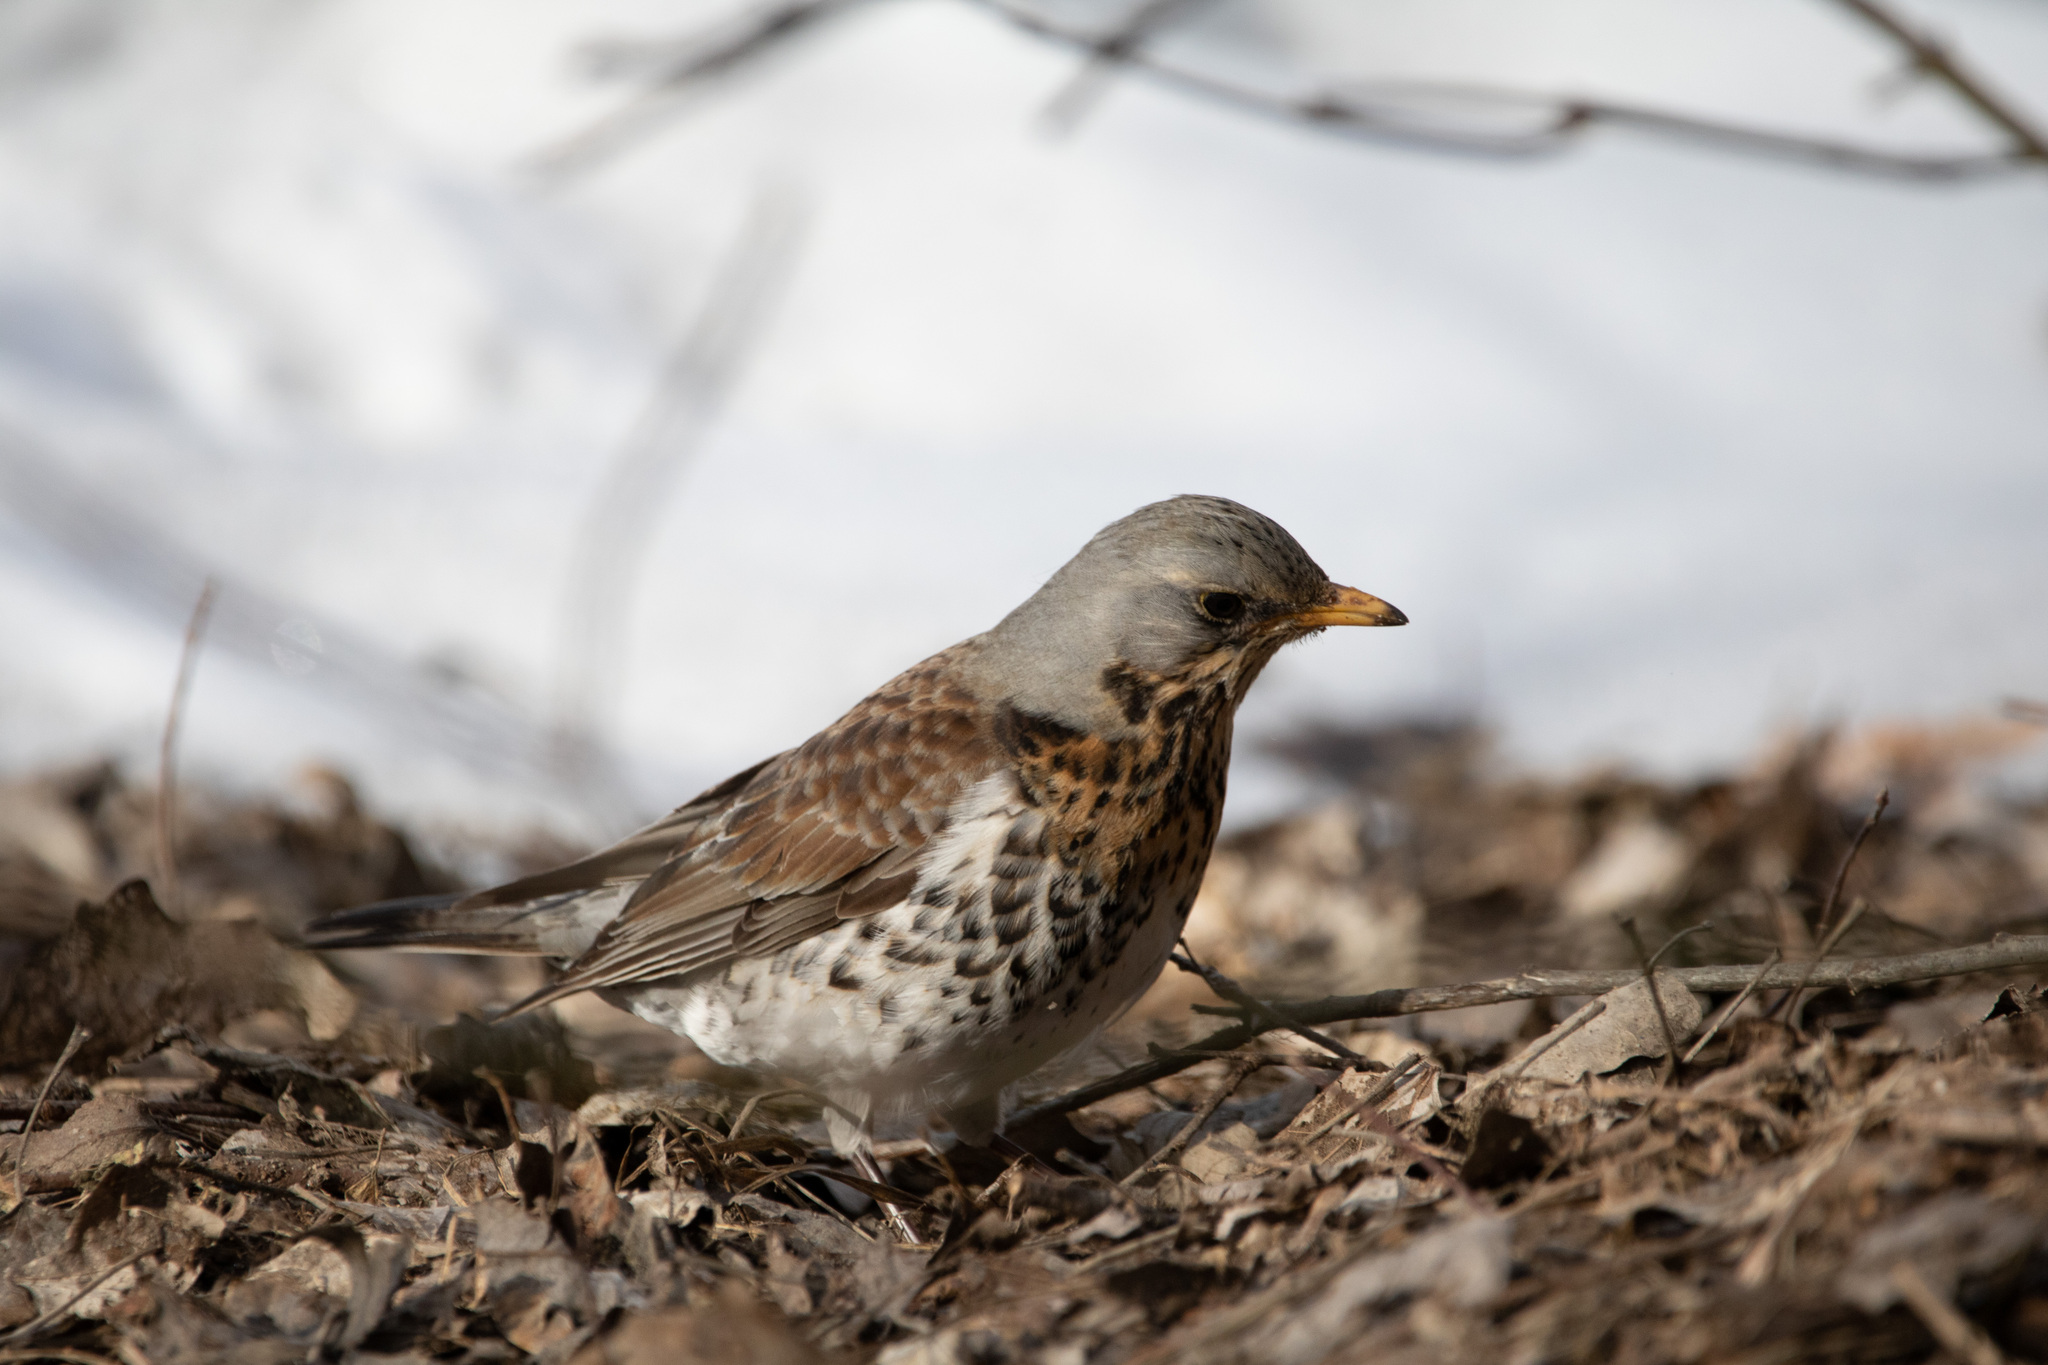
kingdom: Animalia
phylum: Chordata
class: Aves
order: Passeriformes
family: Turdidae
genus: Turdus
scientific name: Turdus pilaris
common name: Fieldfare
